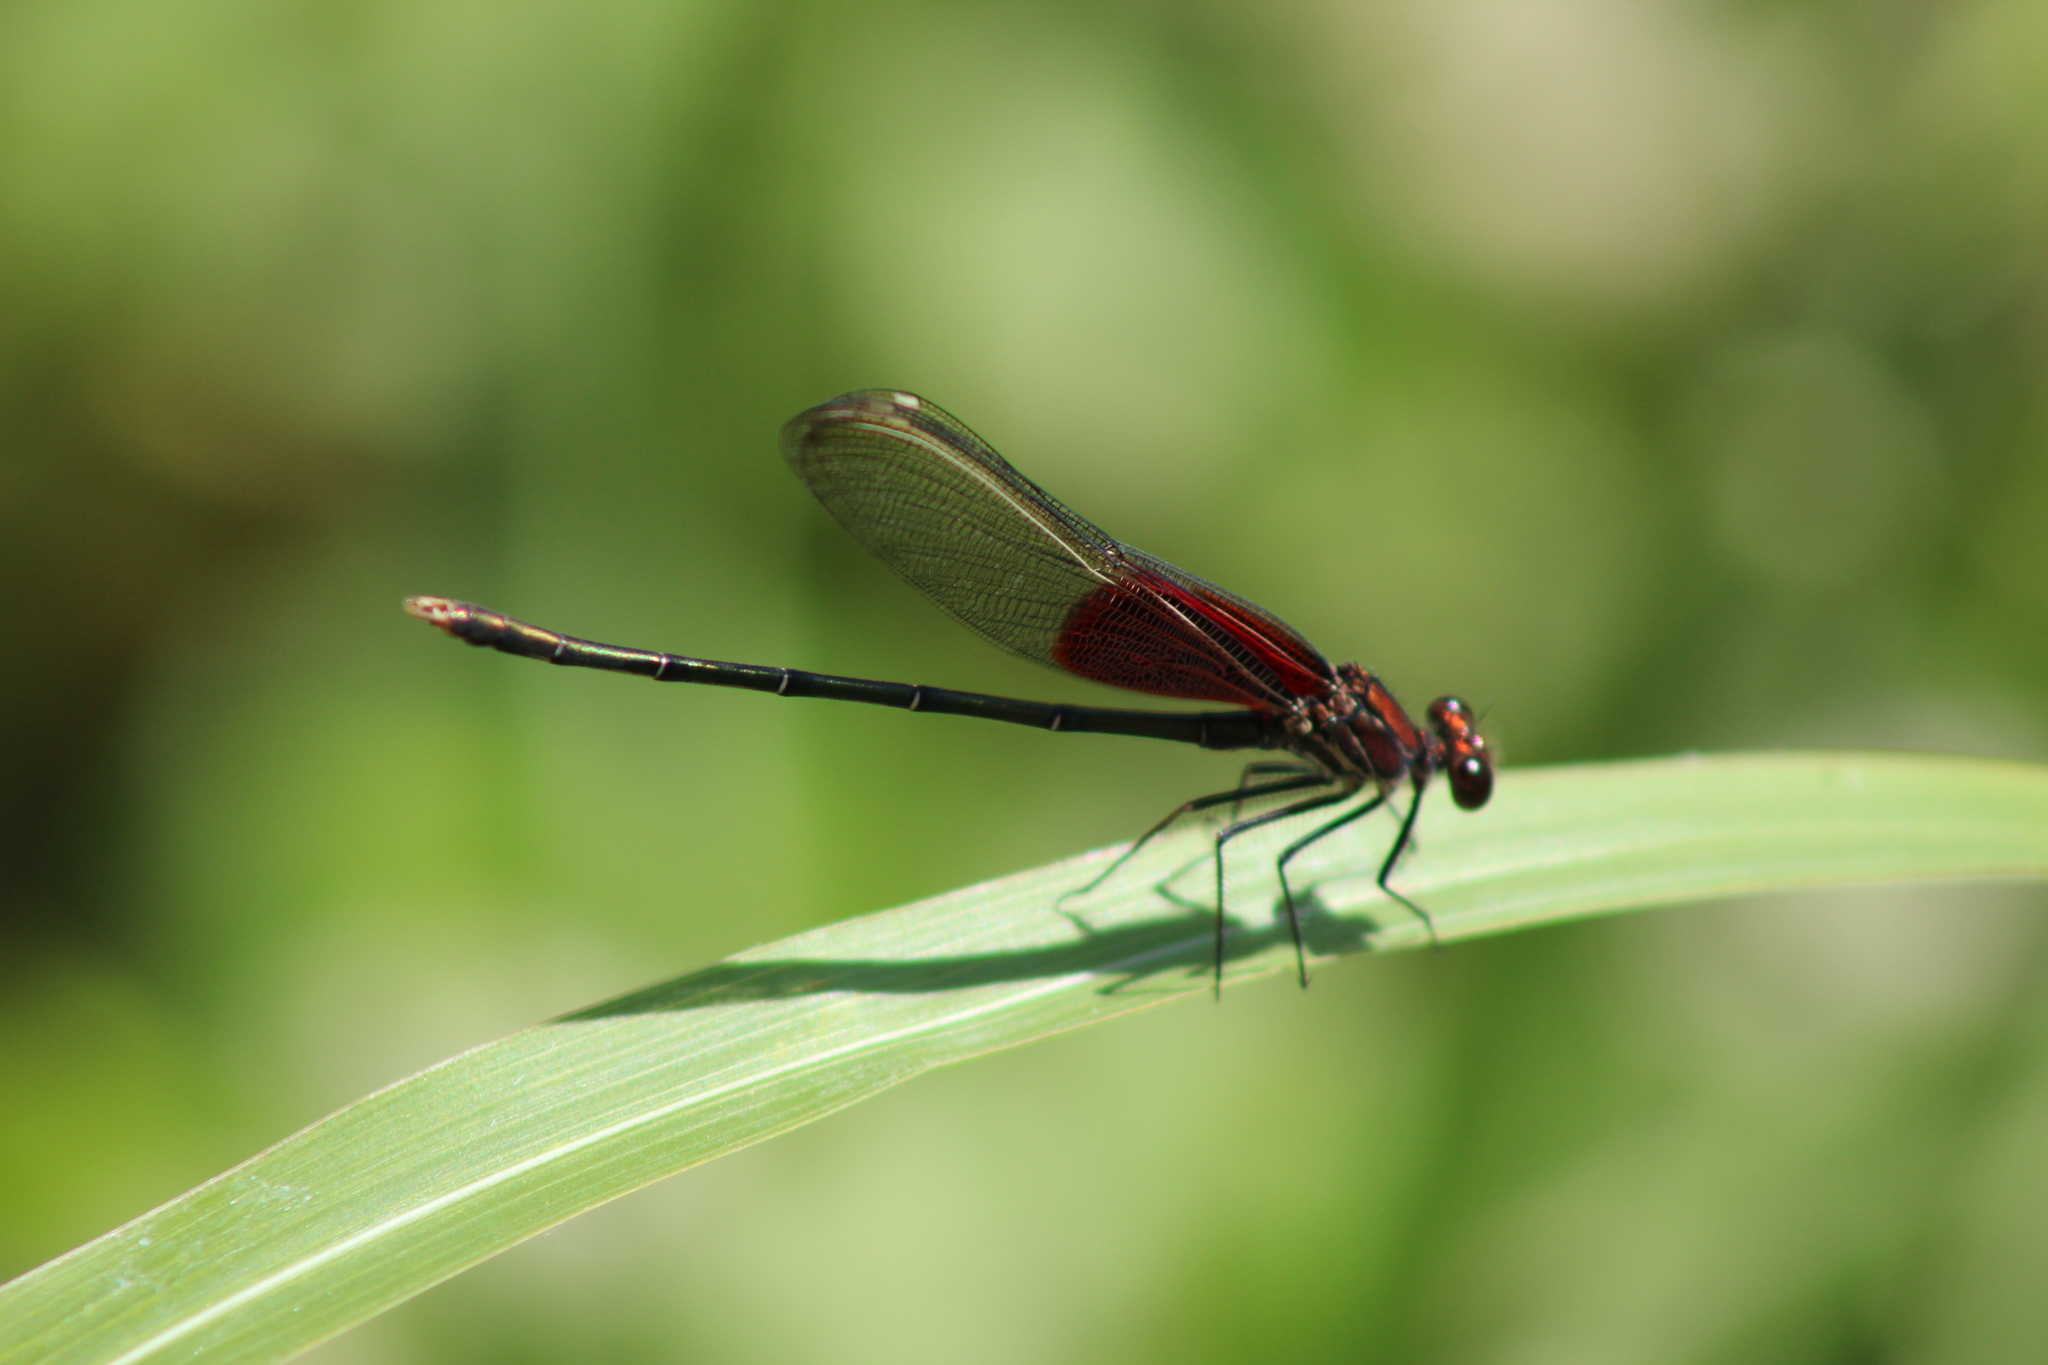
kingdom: Animalia
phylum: Arthropoda
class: Insecta
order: Odonata
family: Calopterygidae
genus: Hetaerina
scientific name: Hetaerina americana
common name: American rubyspot
